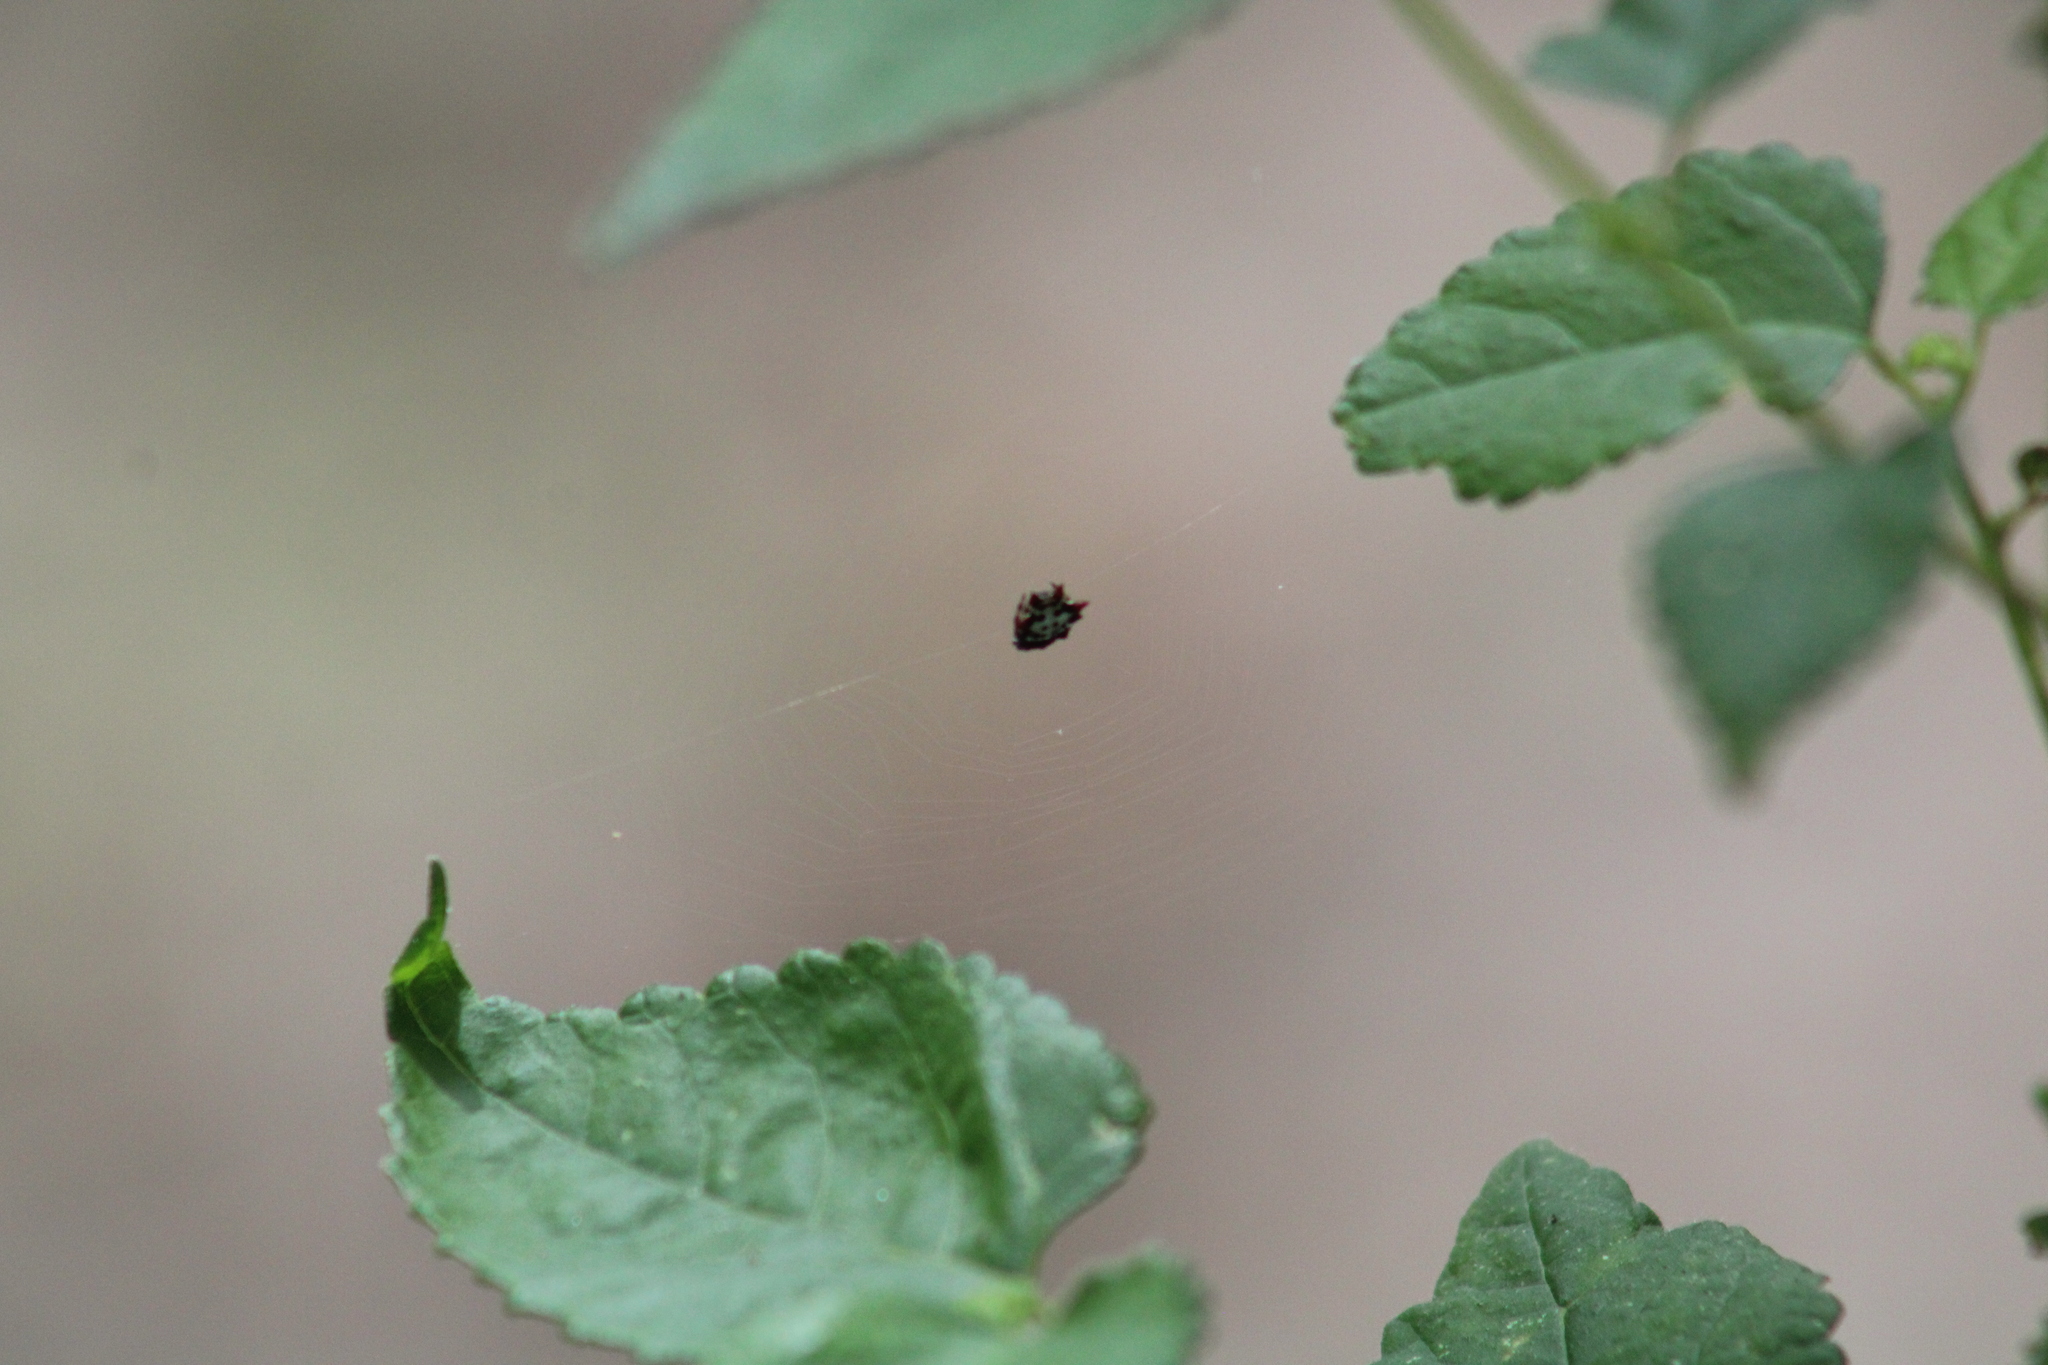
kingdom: Animalia
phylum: Arthropoda
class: Arachnida
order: Araneae
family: Araneidae
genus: Gasteracantha
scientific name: Gasteracantha cancriformis
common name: Orb weavers
